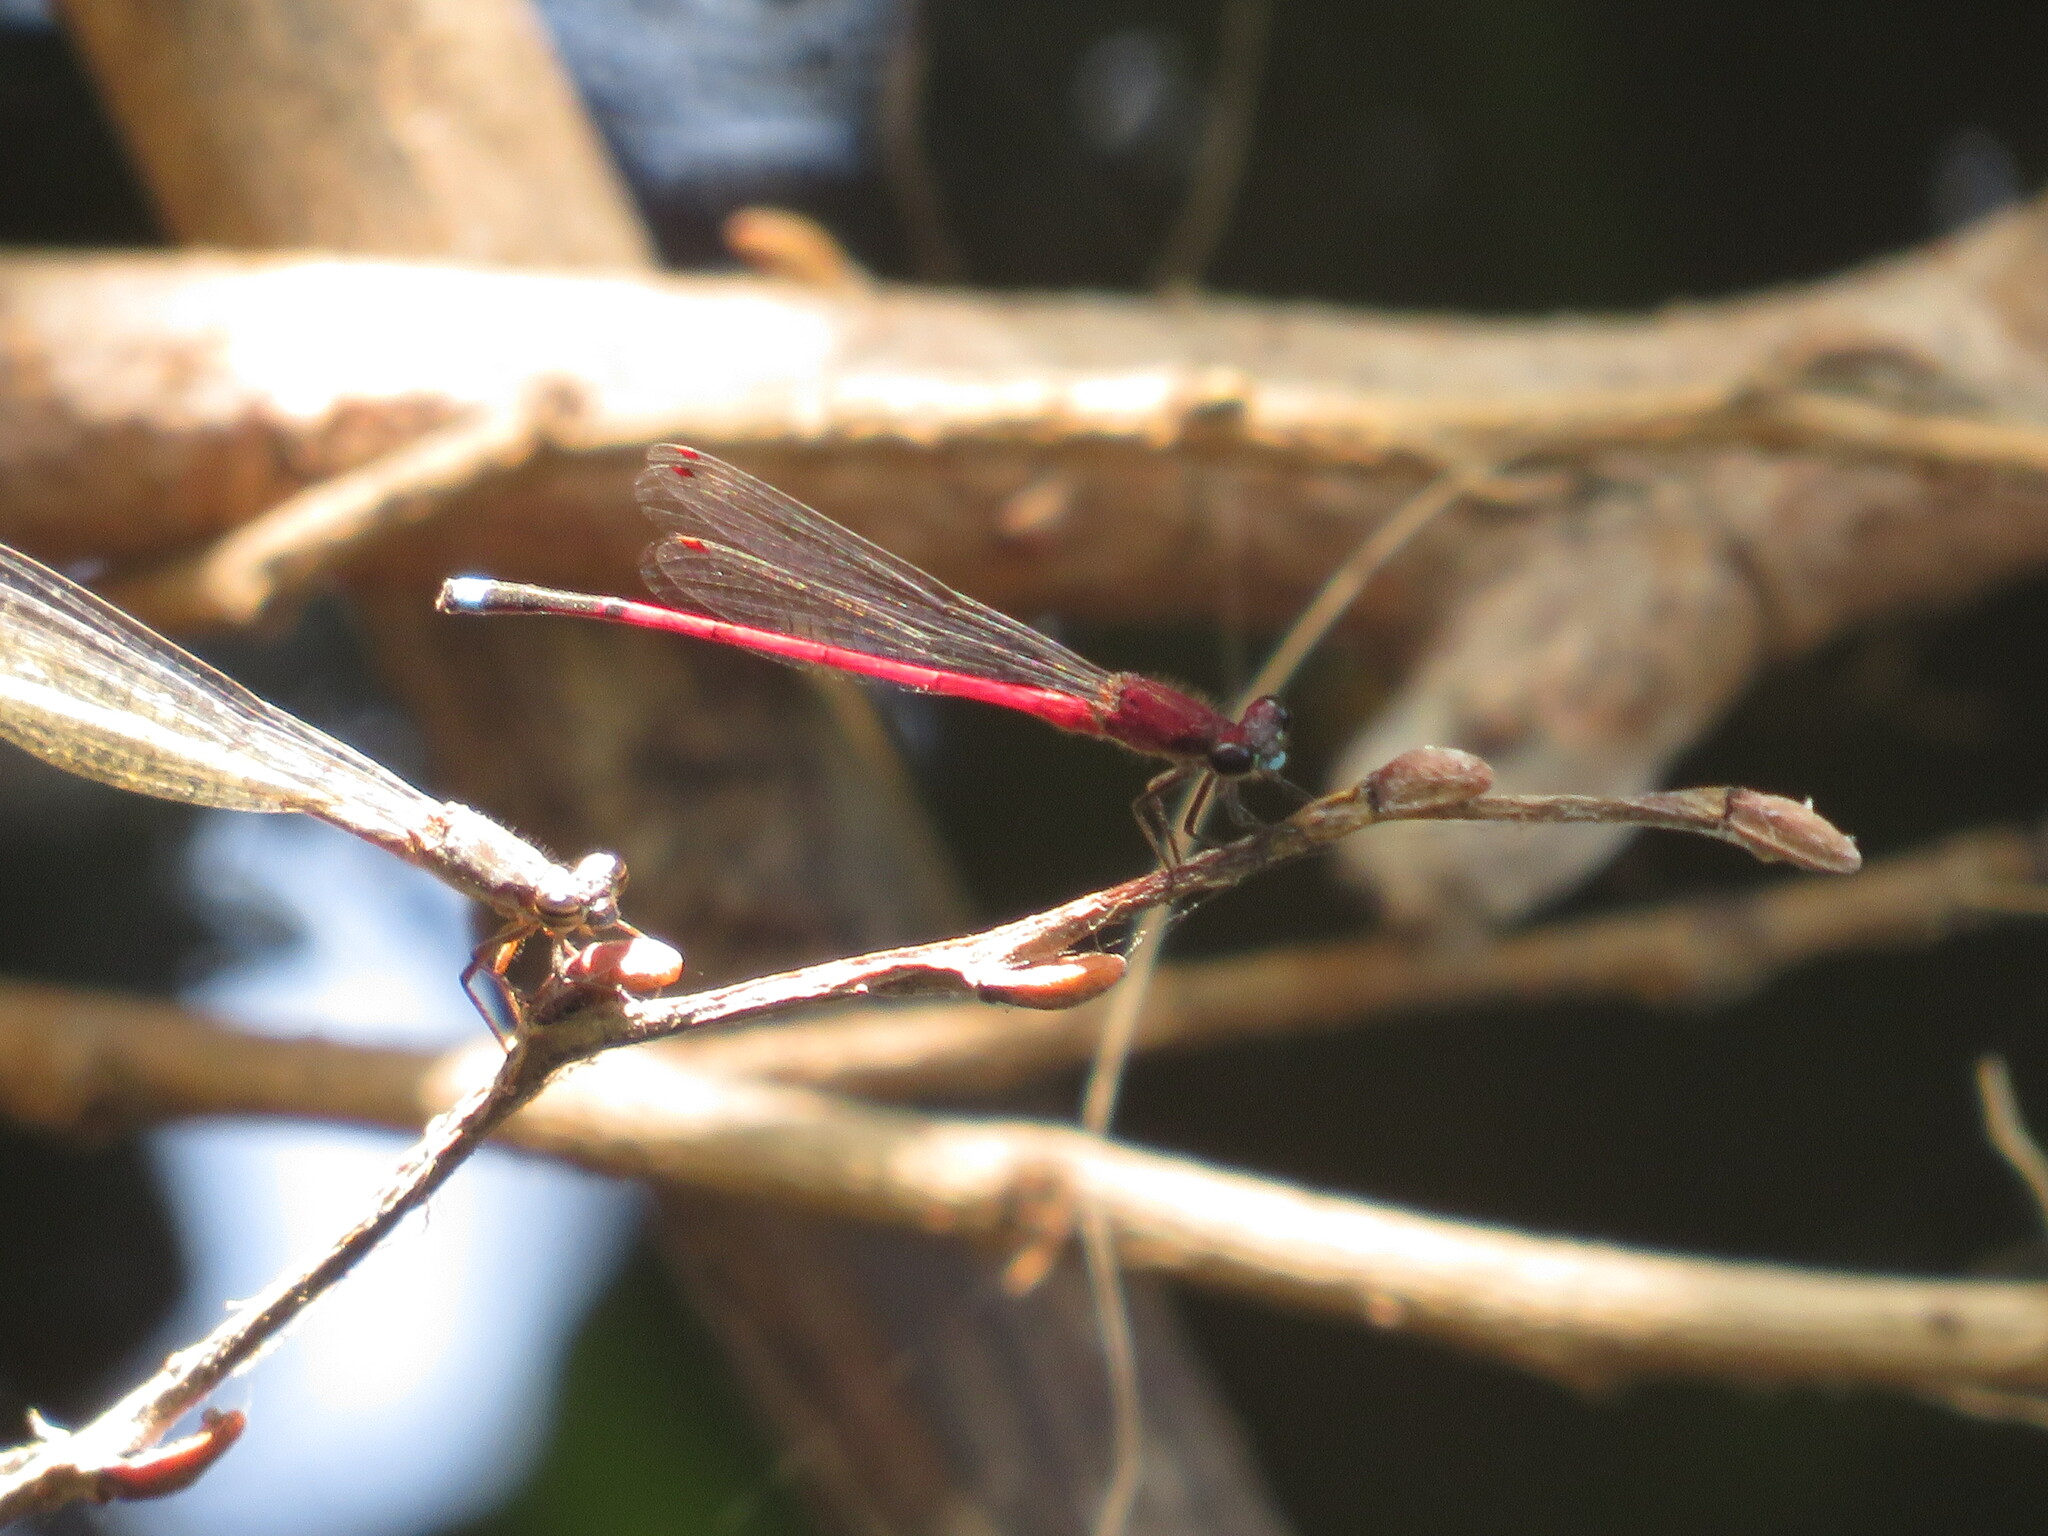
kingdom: Animalia
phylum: Arthropoda
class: Insecta
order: Odonata
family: Coenagrionidae
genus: Oxyagrion
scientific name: Oxyagrion terminale
